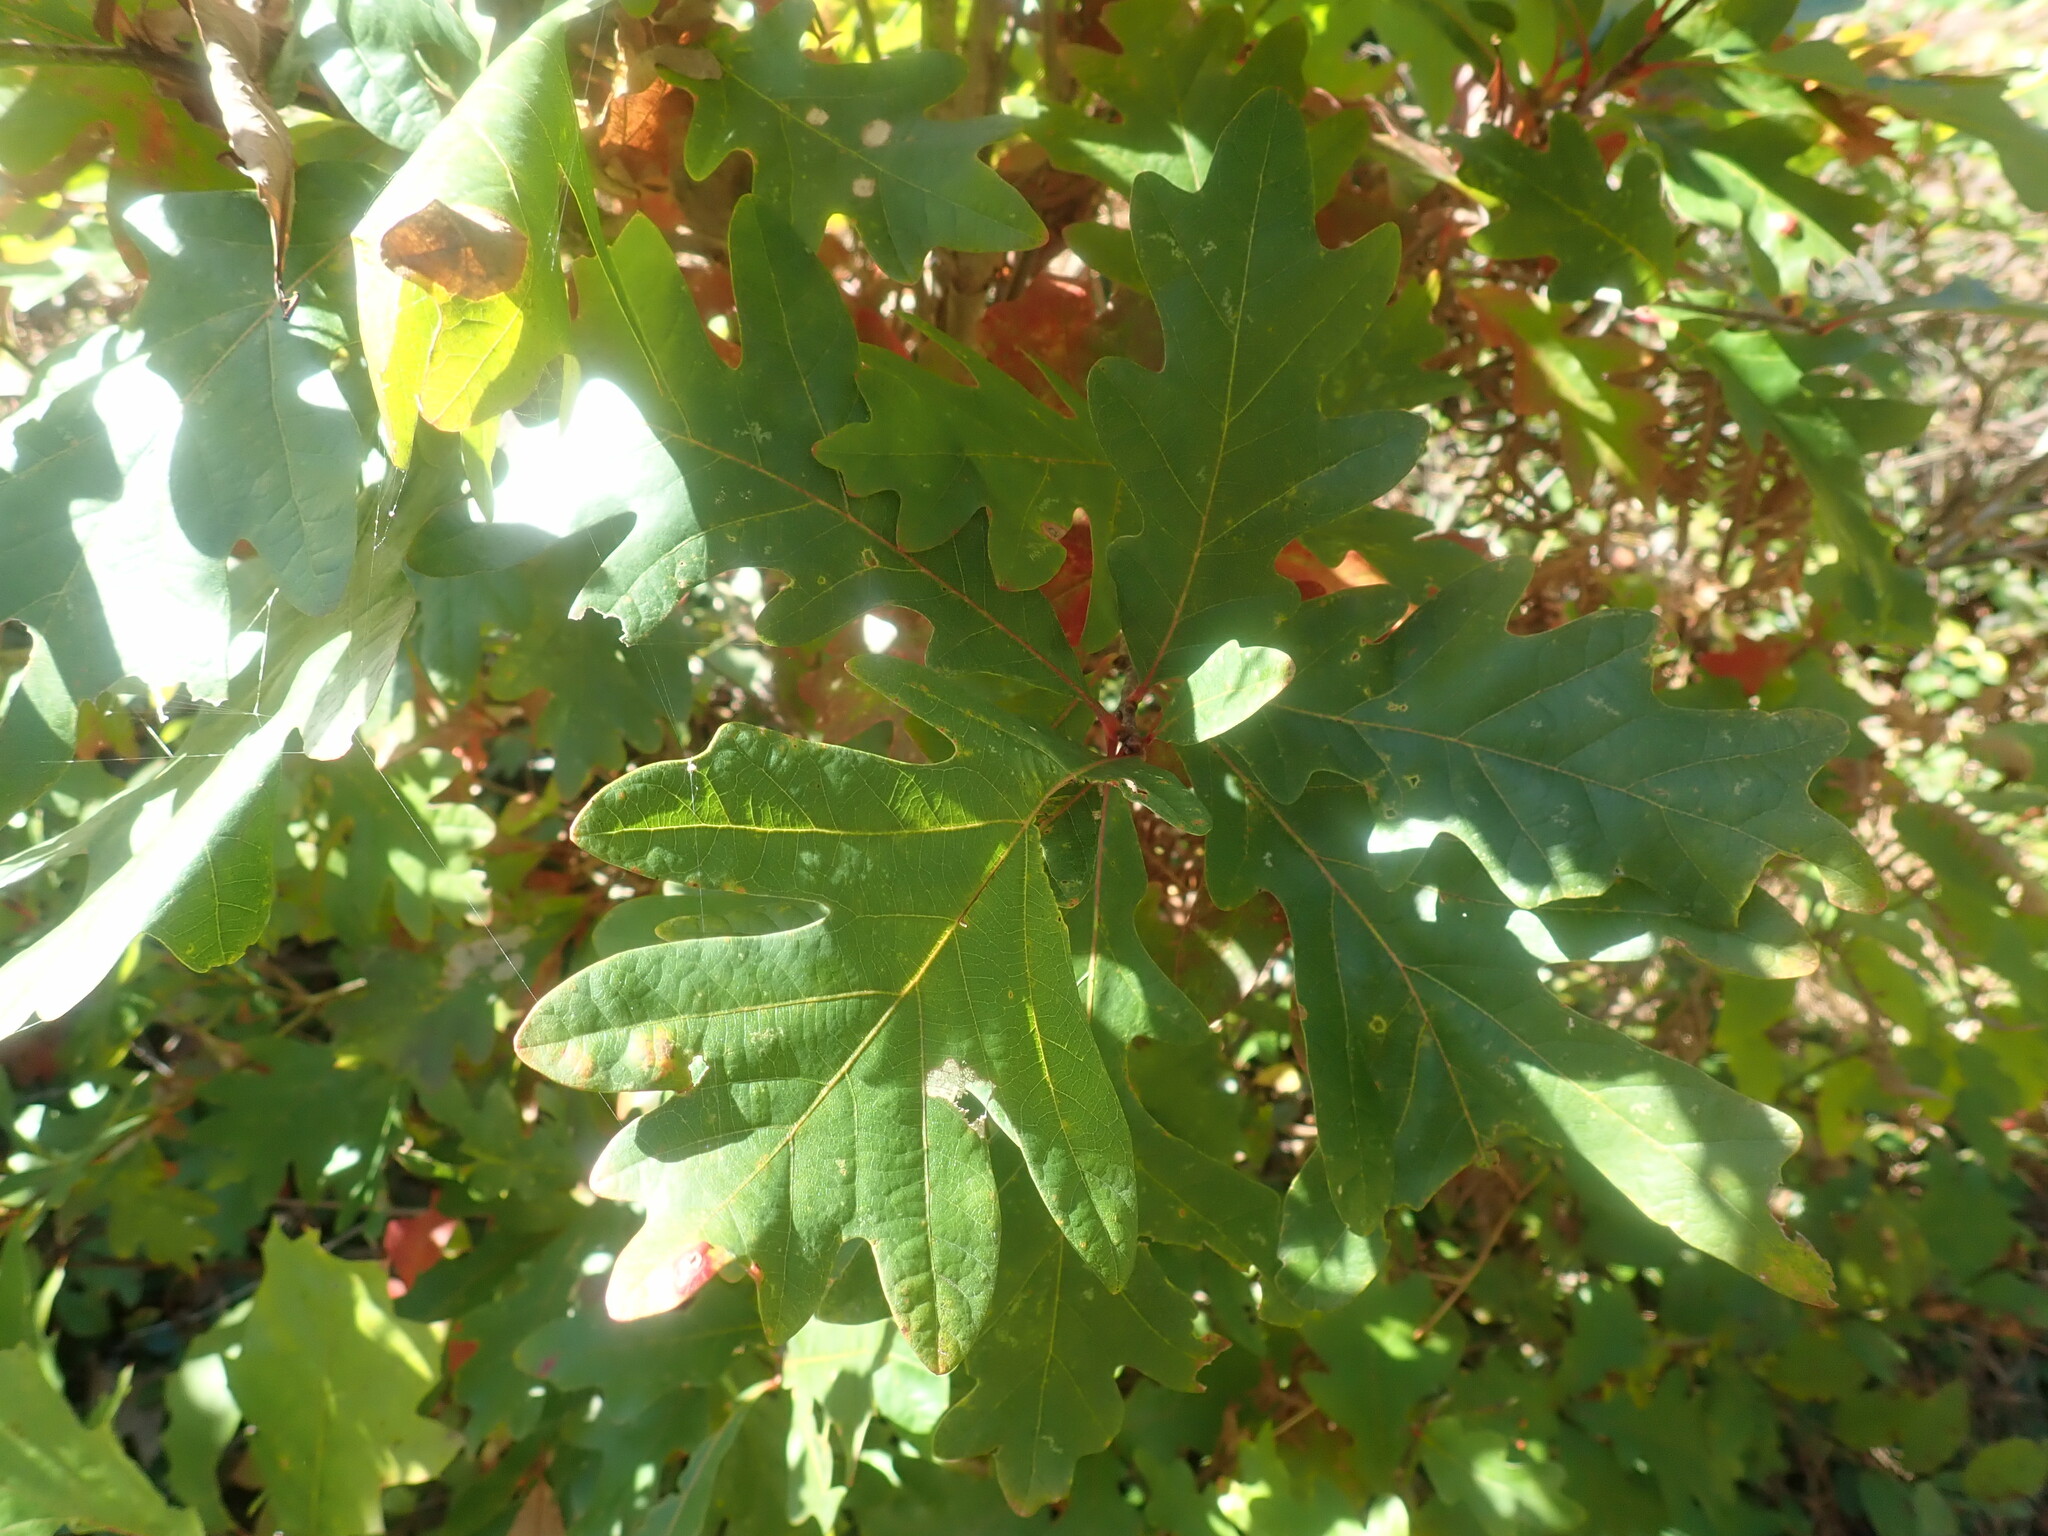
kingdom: Plantae
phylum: Tracheophyta
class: Magnoliopsida
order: Fagales
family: Fagaceae
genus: Quercus
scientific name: Quercus alba
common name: White oak
